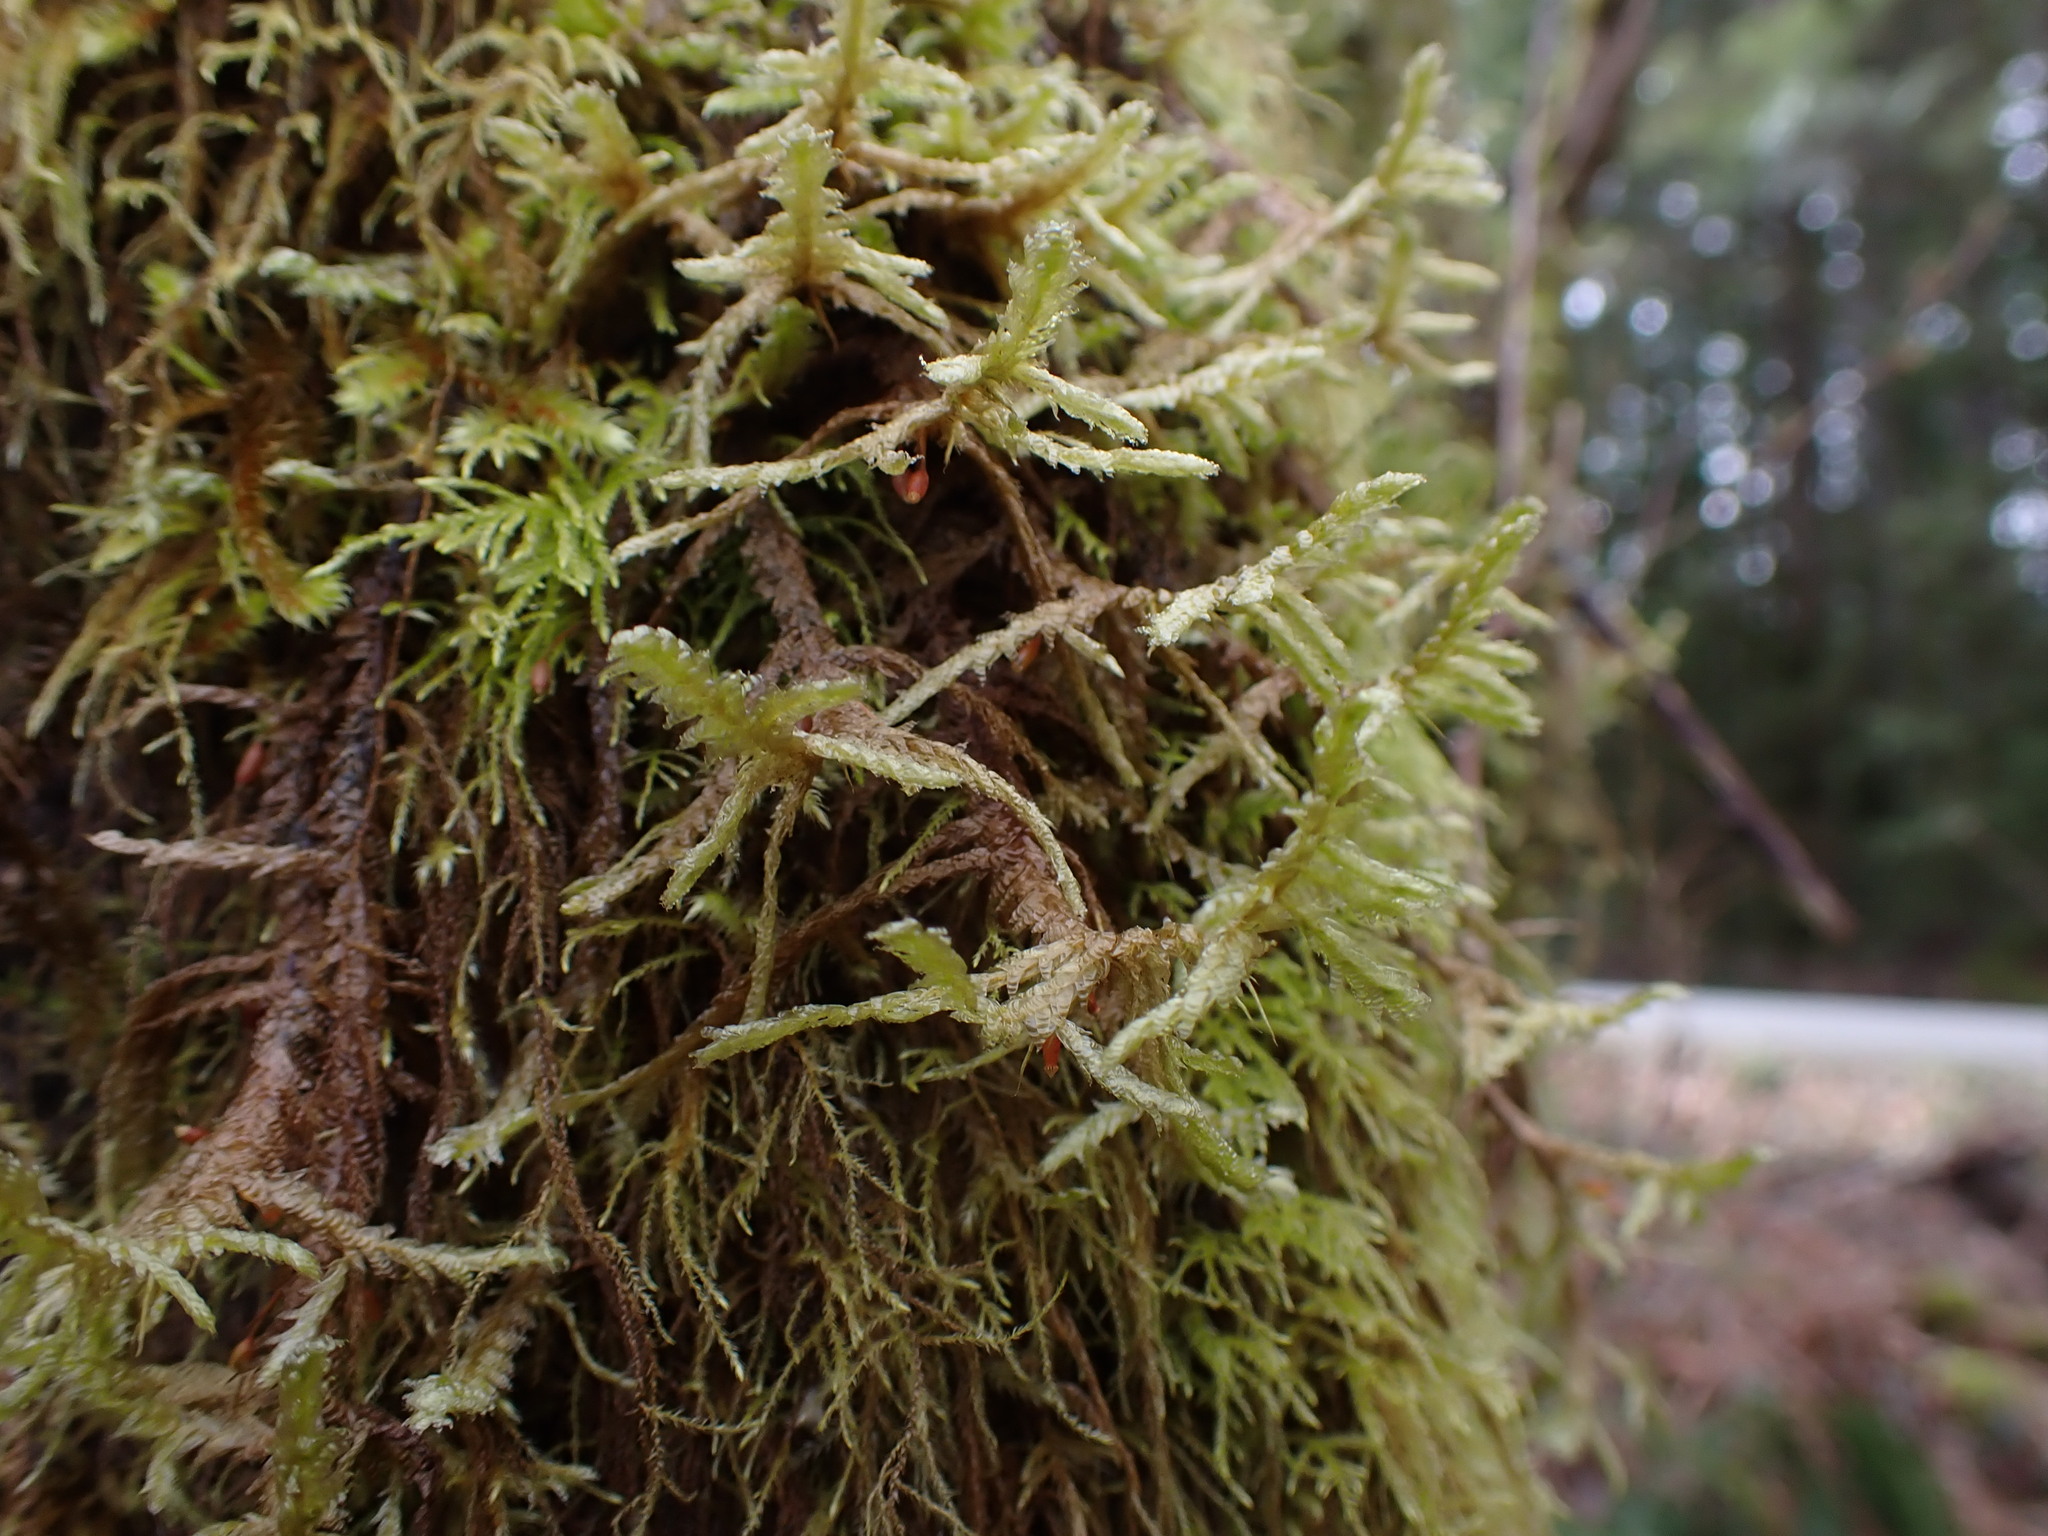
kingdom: Plantae
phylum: Bryophyta
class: Bryopsida
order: Hypnales
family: Neckeraceae
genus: Neckera
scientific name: Neckera douglasii
